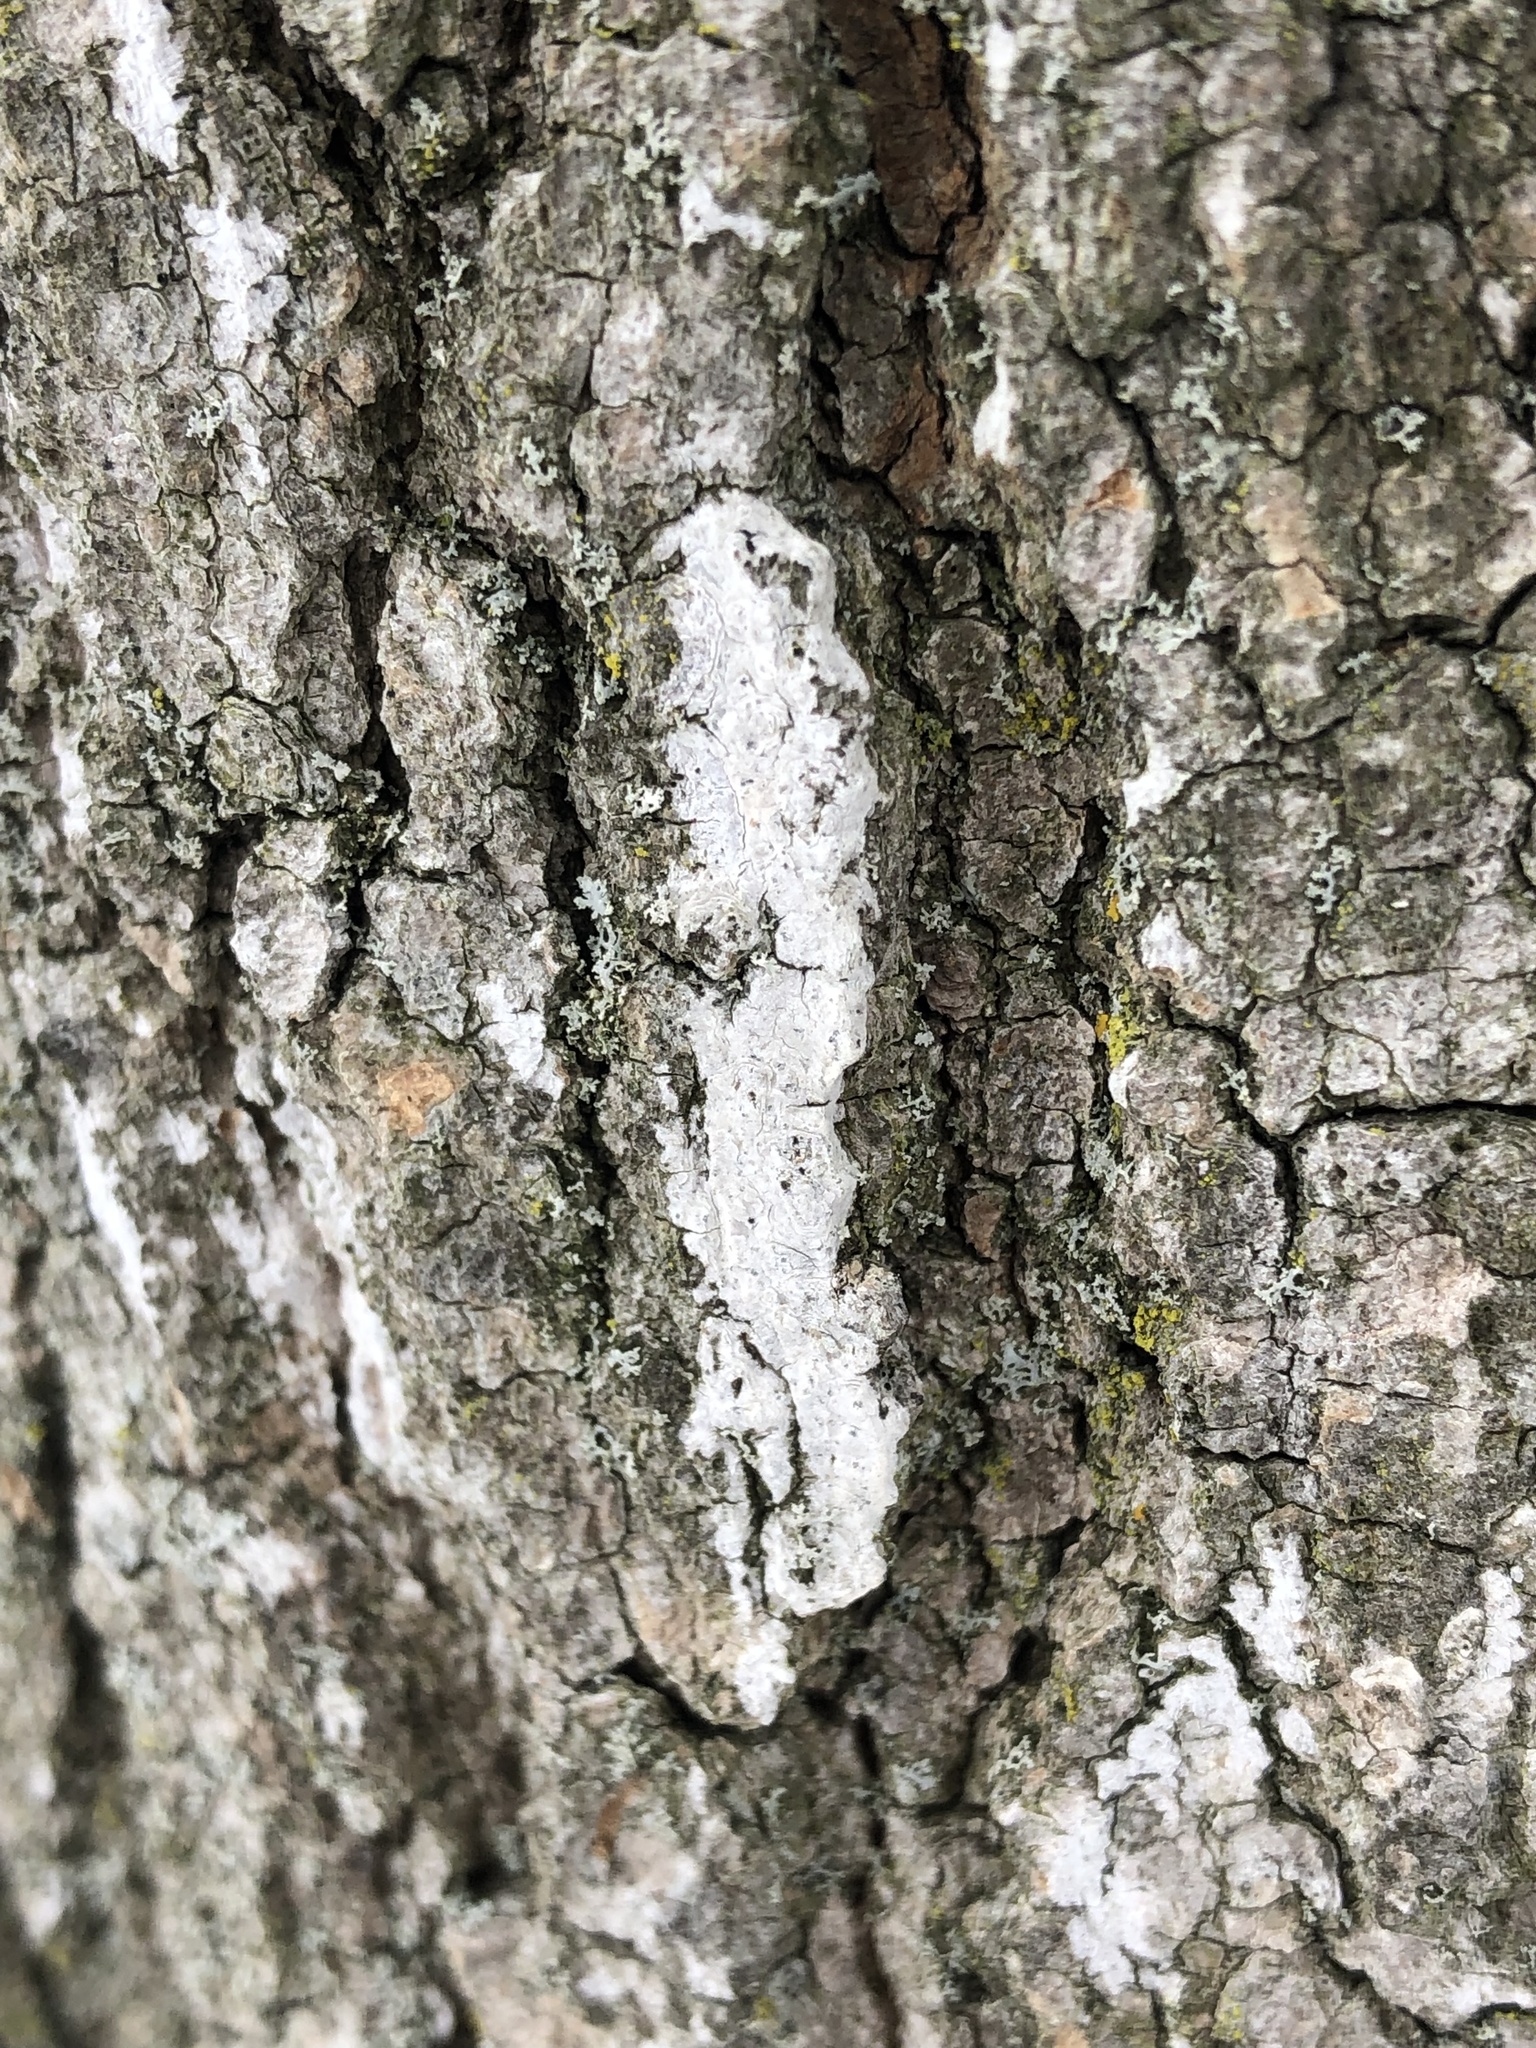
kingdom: Fungi
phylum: Ascomycota
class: Dothideomycetes
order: Trypetheliales
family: Trypetheliaceae
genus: Arthopyrenia
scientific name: Arthopyrenia fallaciosa
